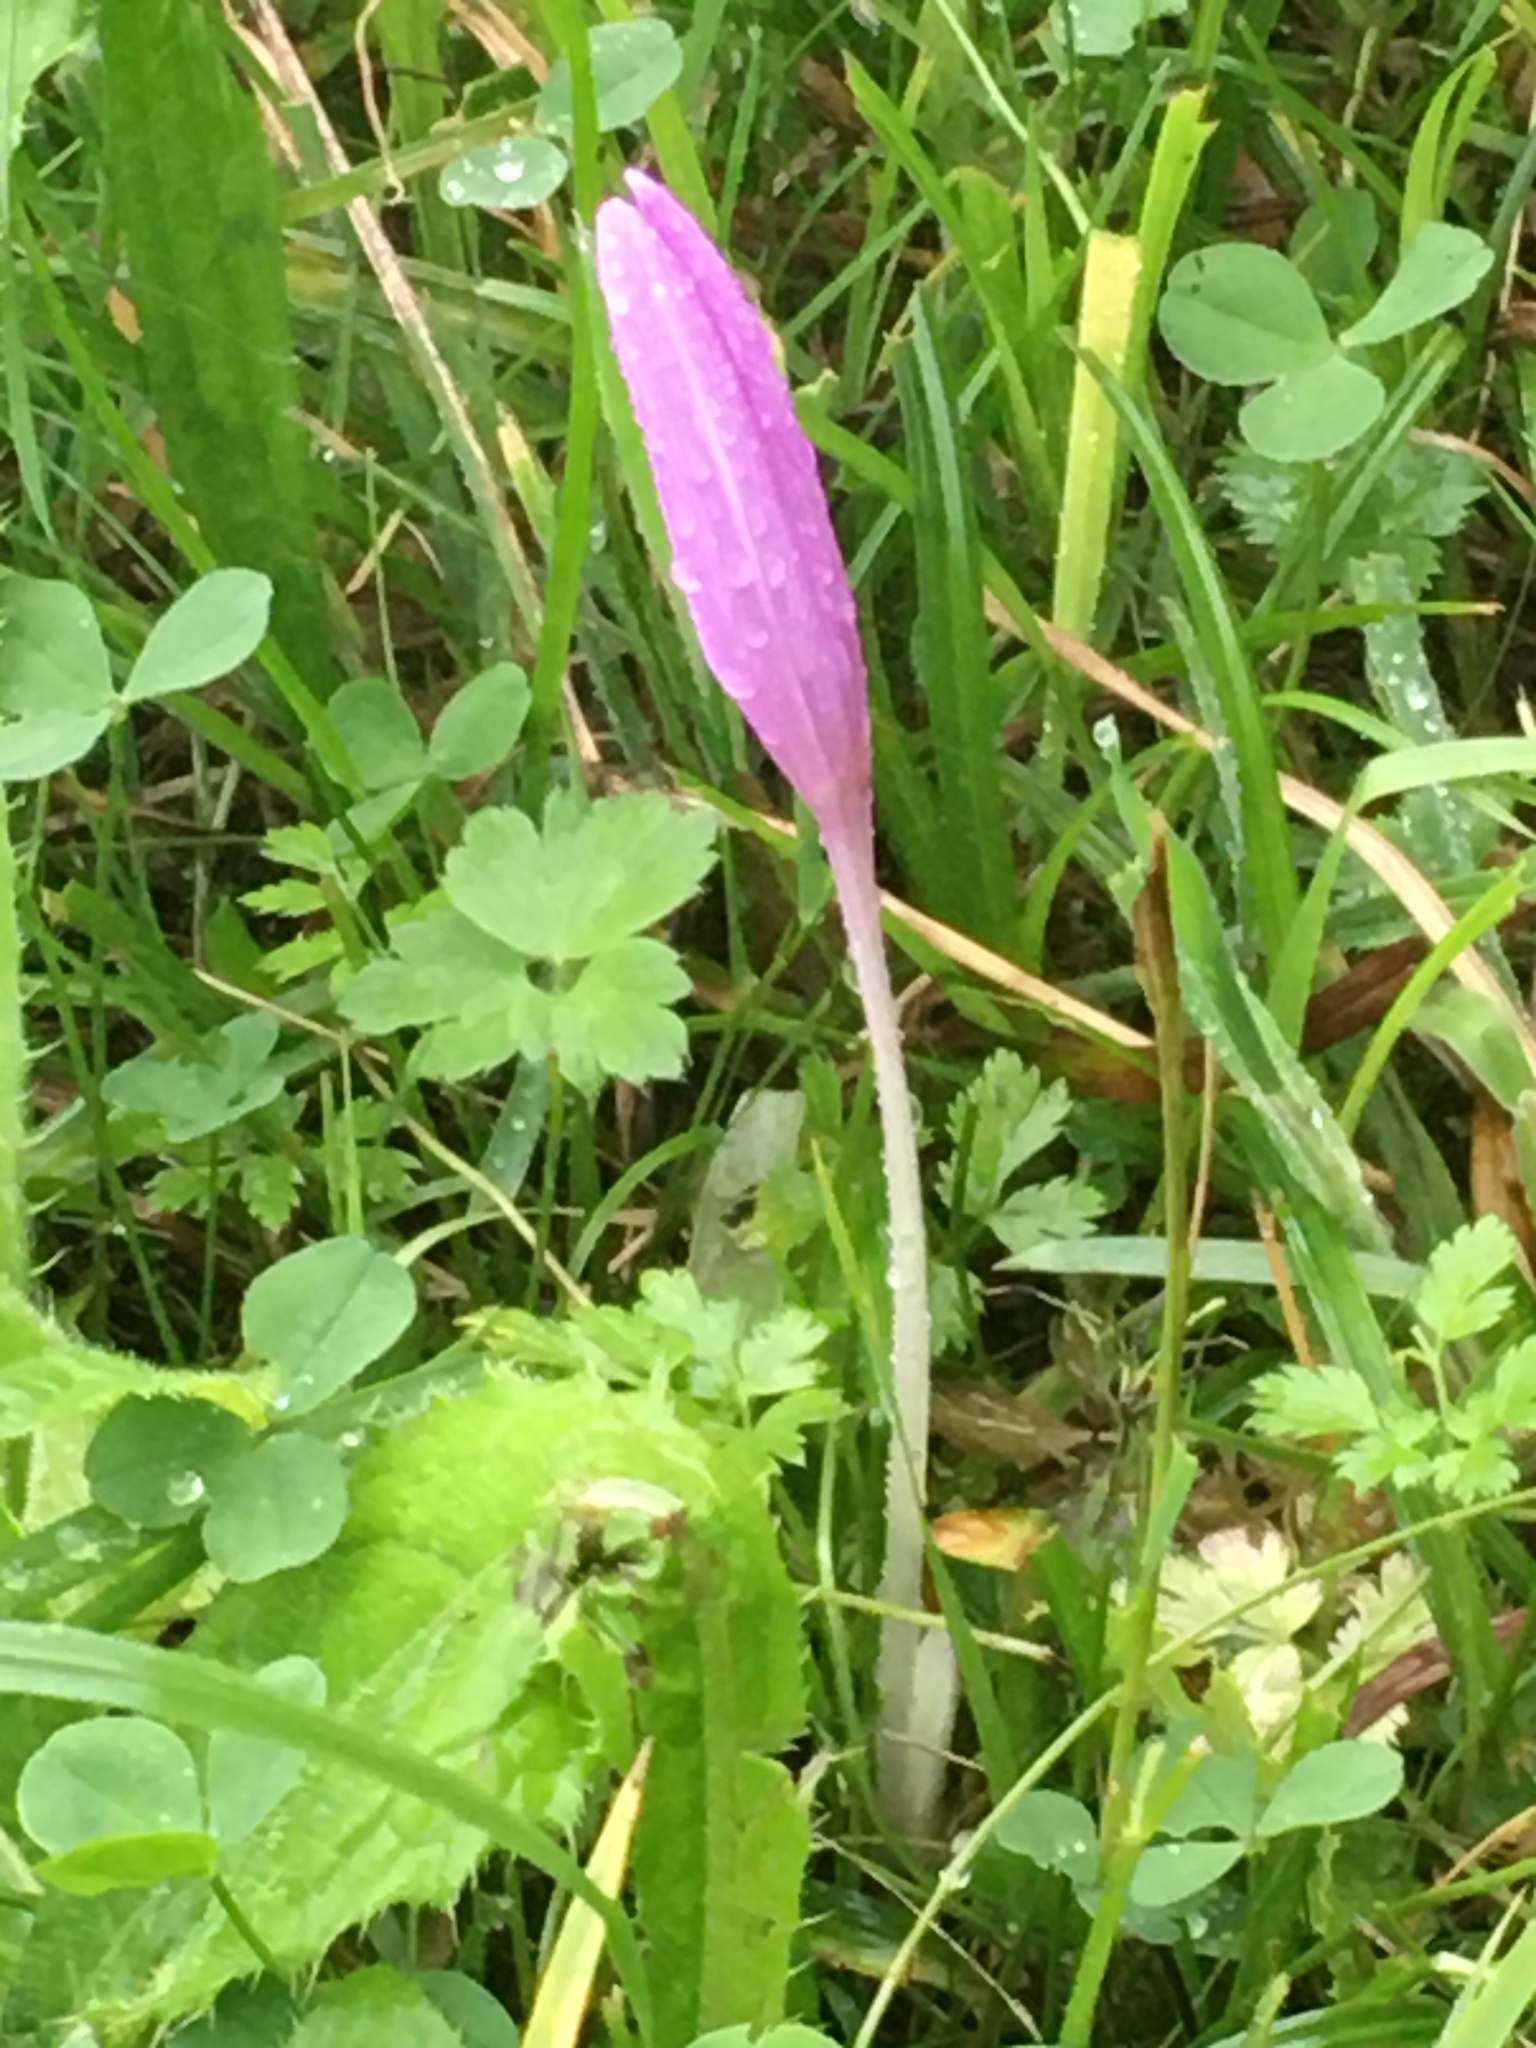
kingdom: Plantae
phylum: Tracheophyta
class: Liliopsida
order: Liliales
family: Colchicaceae
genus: Colchicum
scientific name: Colchicum autumnale
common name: Autumn crocus
